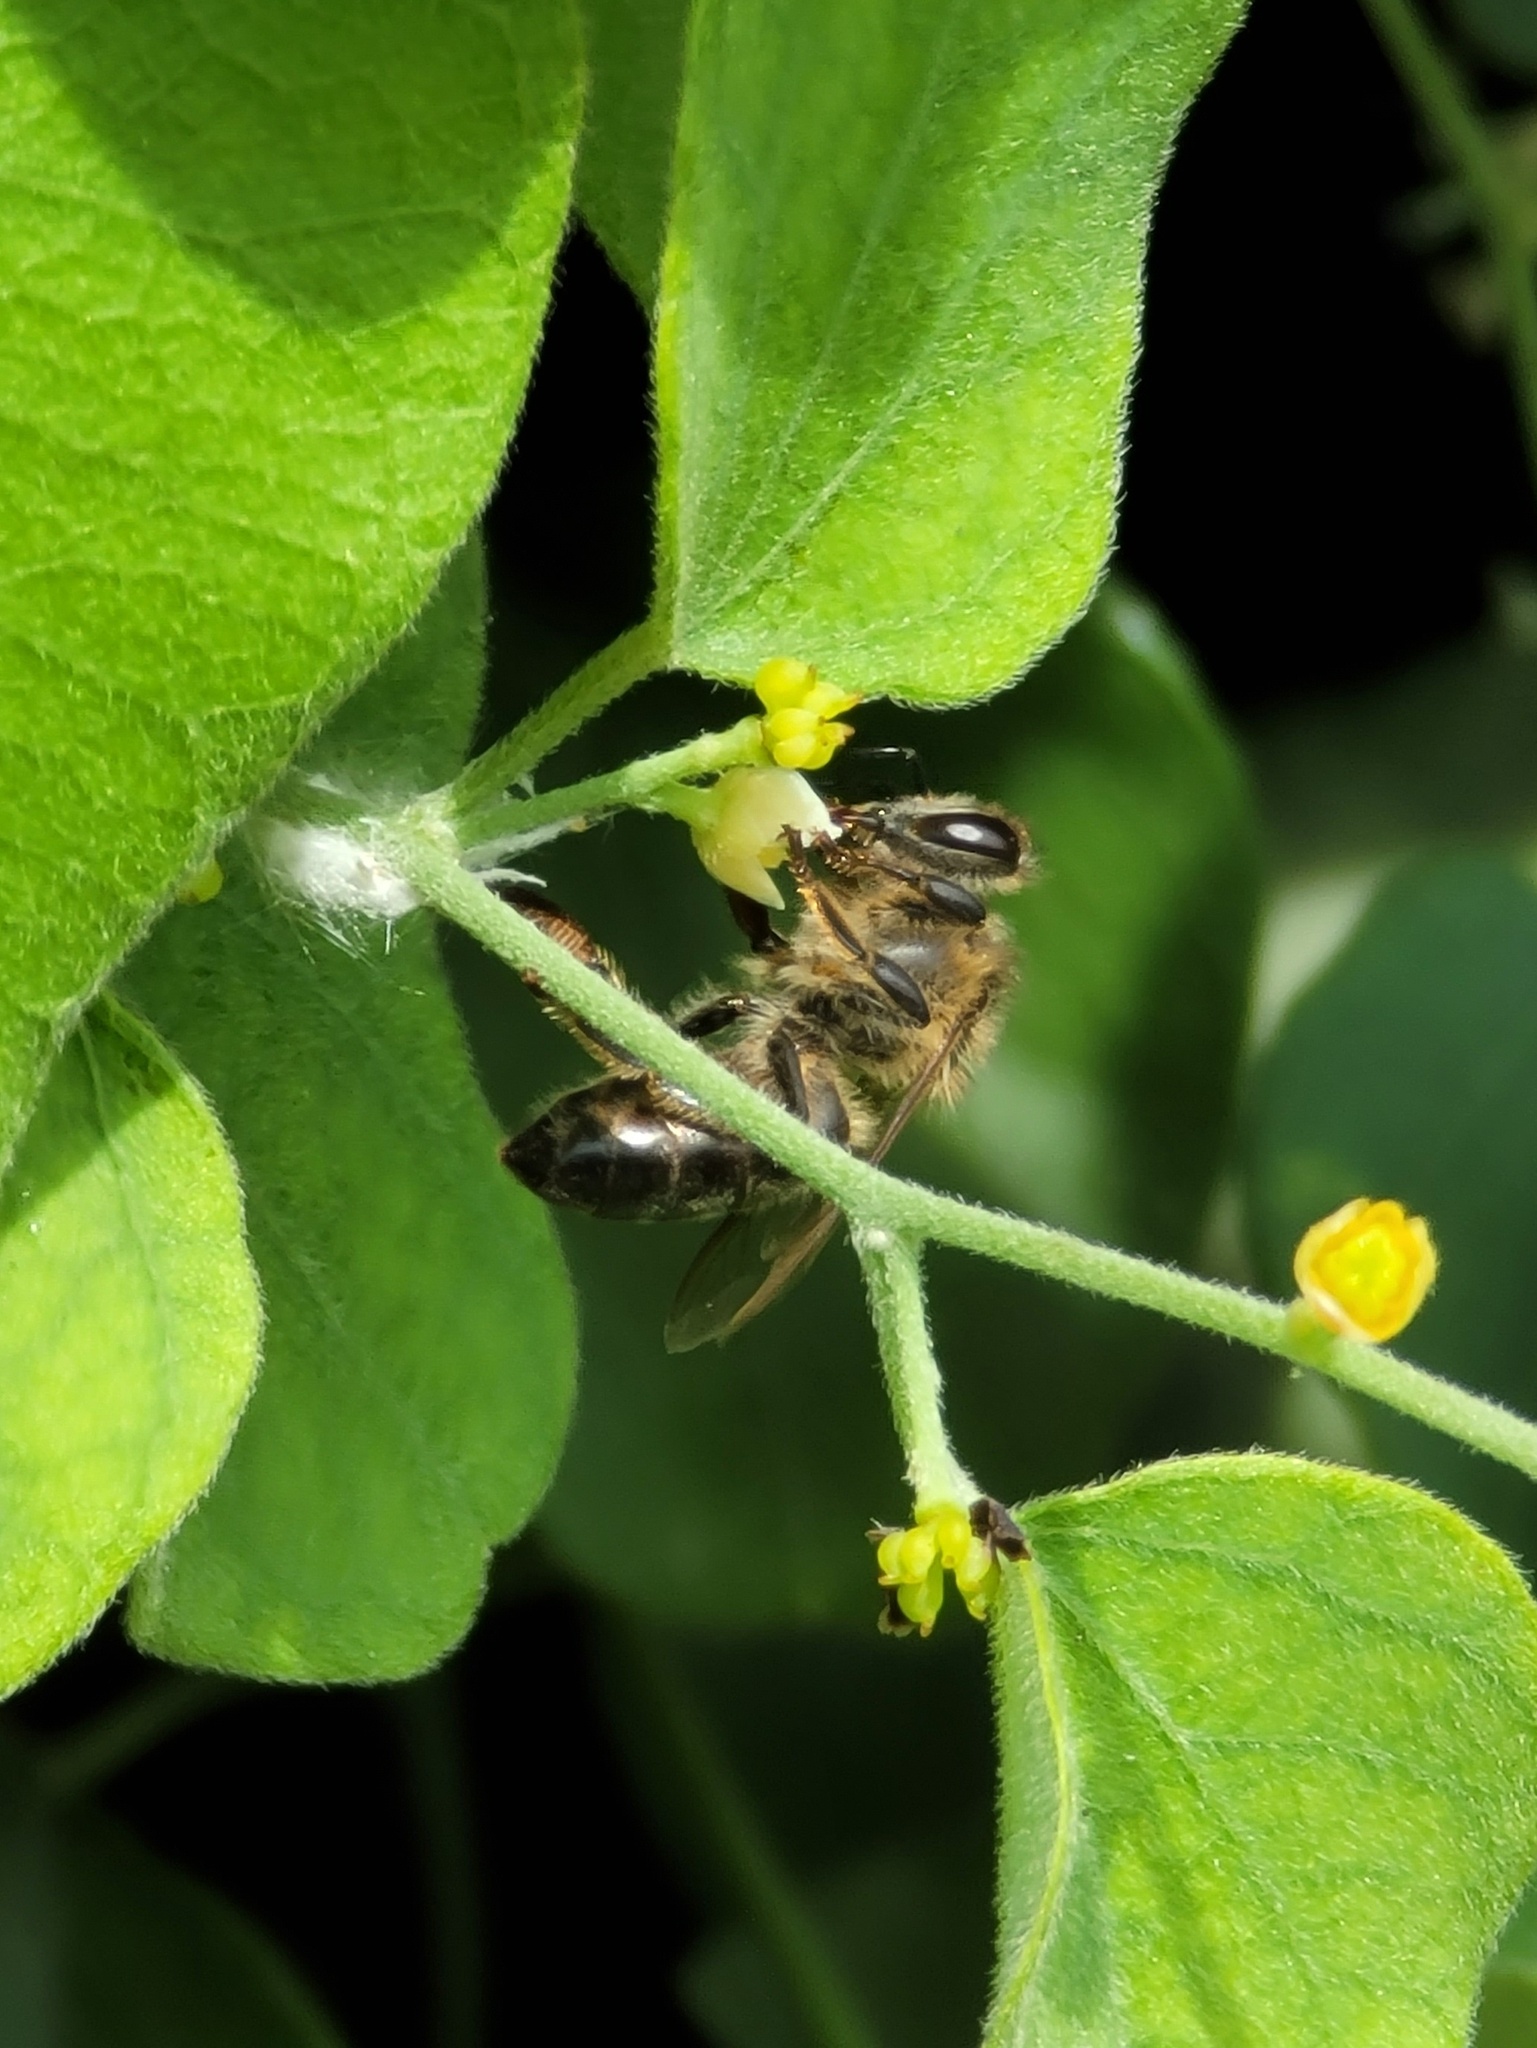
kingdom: Animalia
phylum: Arthropoda
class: Insecta
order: Hymenoptera
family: Apidae
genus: Apis
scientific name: Apis mellifera
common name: Honey bee
